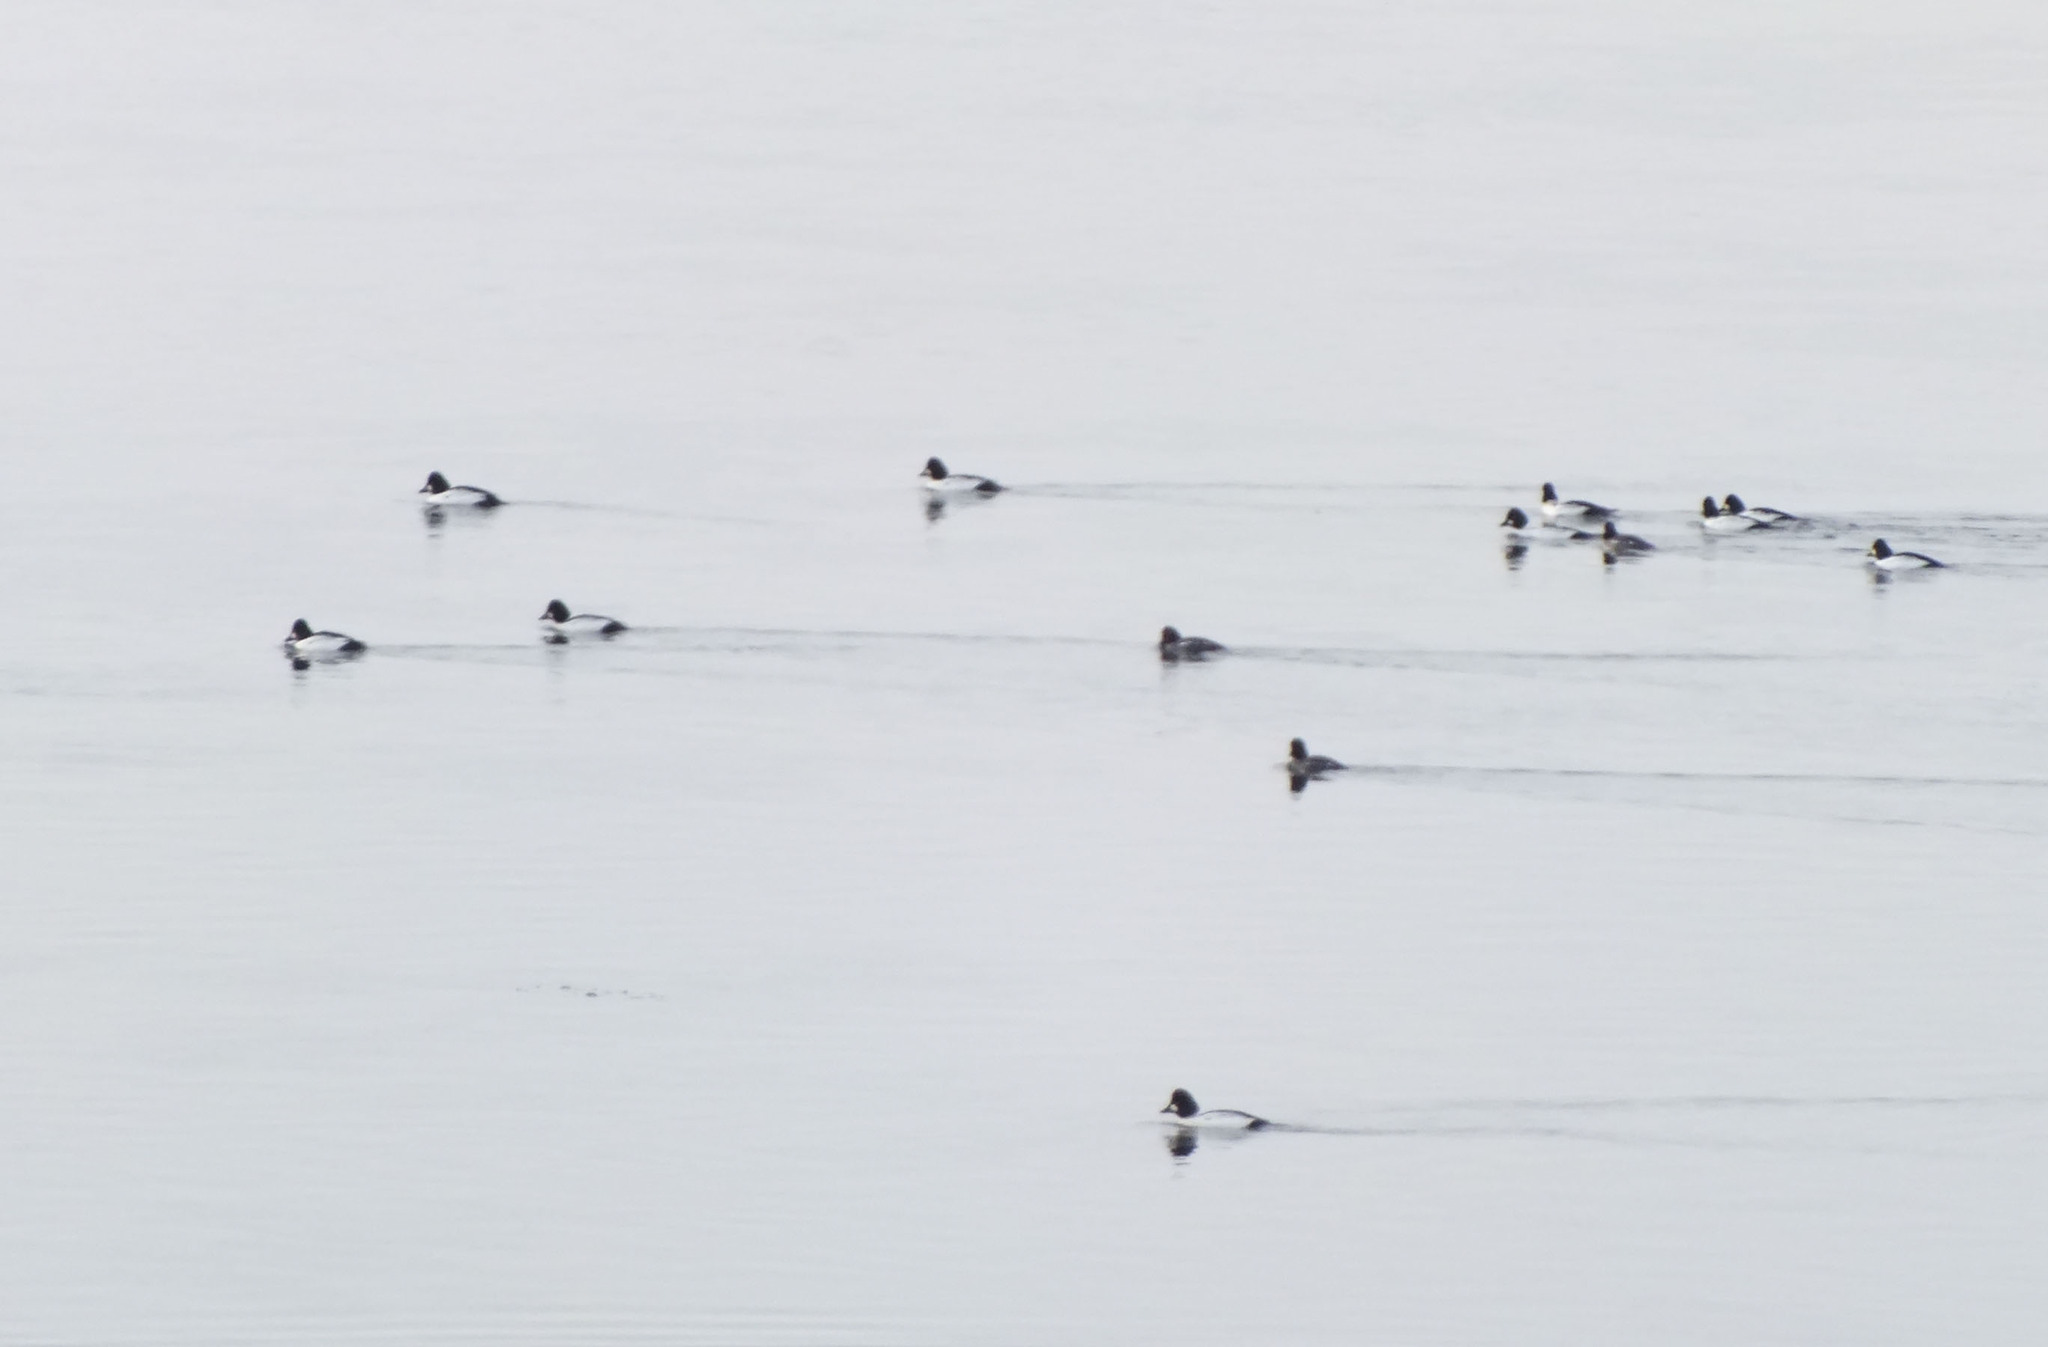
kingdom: Animalia
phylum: Chordata
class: Aves
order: Anseriformes
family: Anatidae
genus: Bucephala
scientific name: Bucephala clangula
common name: Common goldeneye
